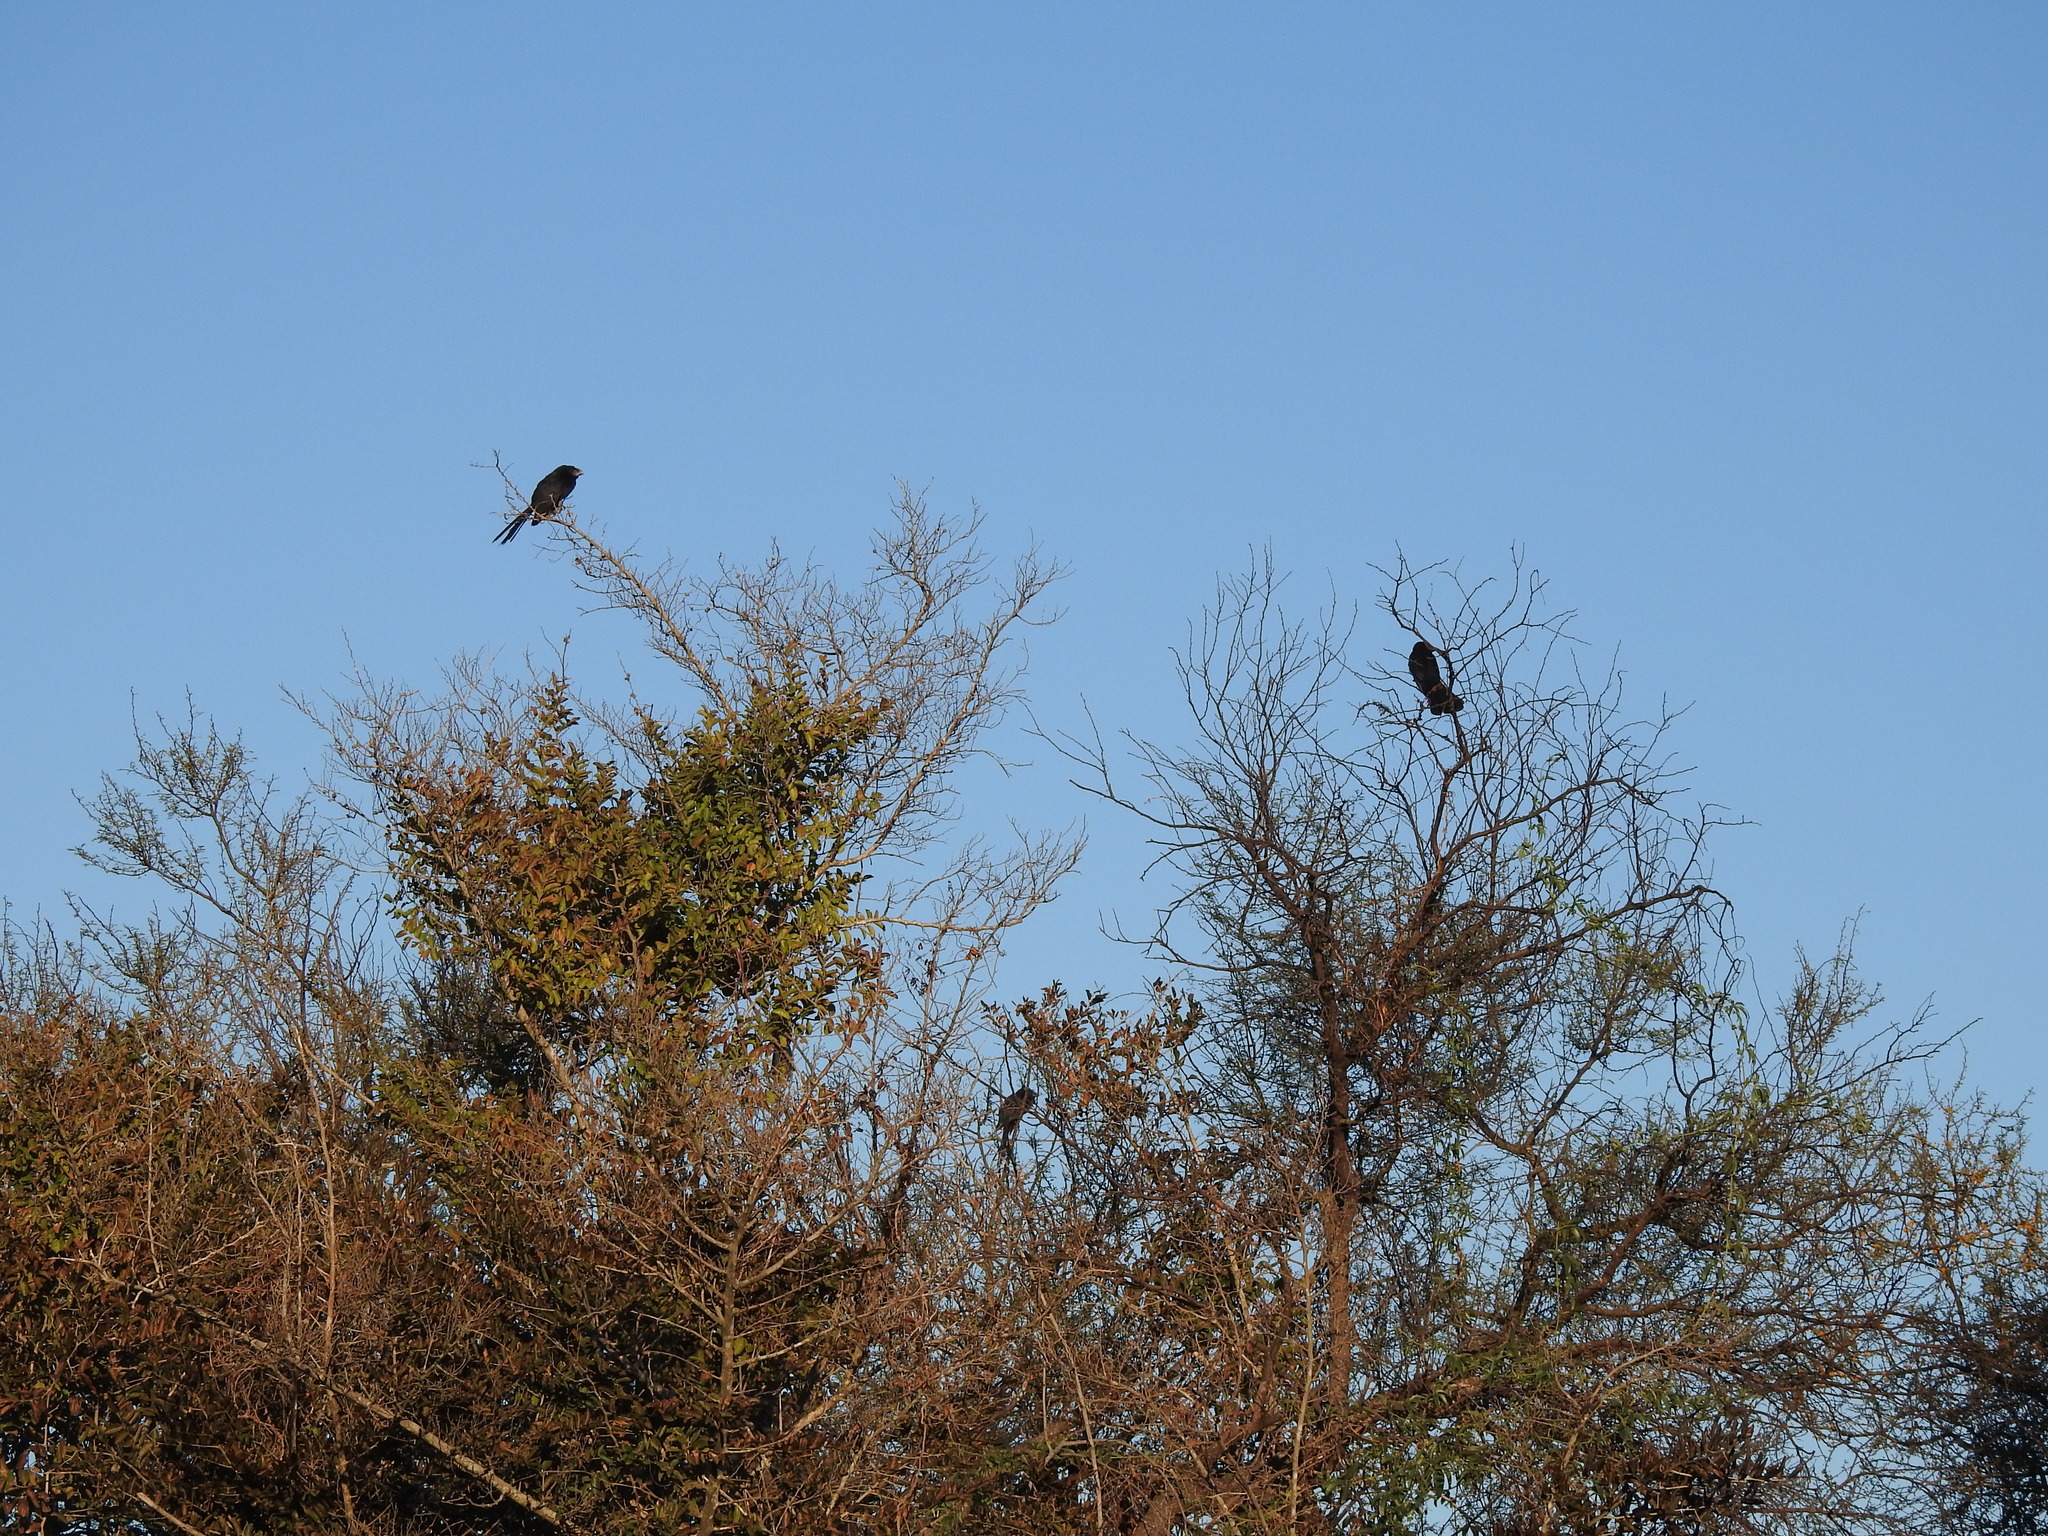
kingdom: Animalia
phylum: Chordata
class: Aves
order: Cuculiformes
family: Cuculidae
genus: Crotophaga
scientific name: Crotophaga ani
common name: Smooth-billed ani
